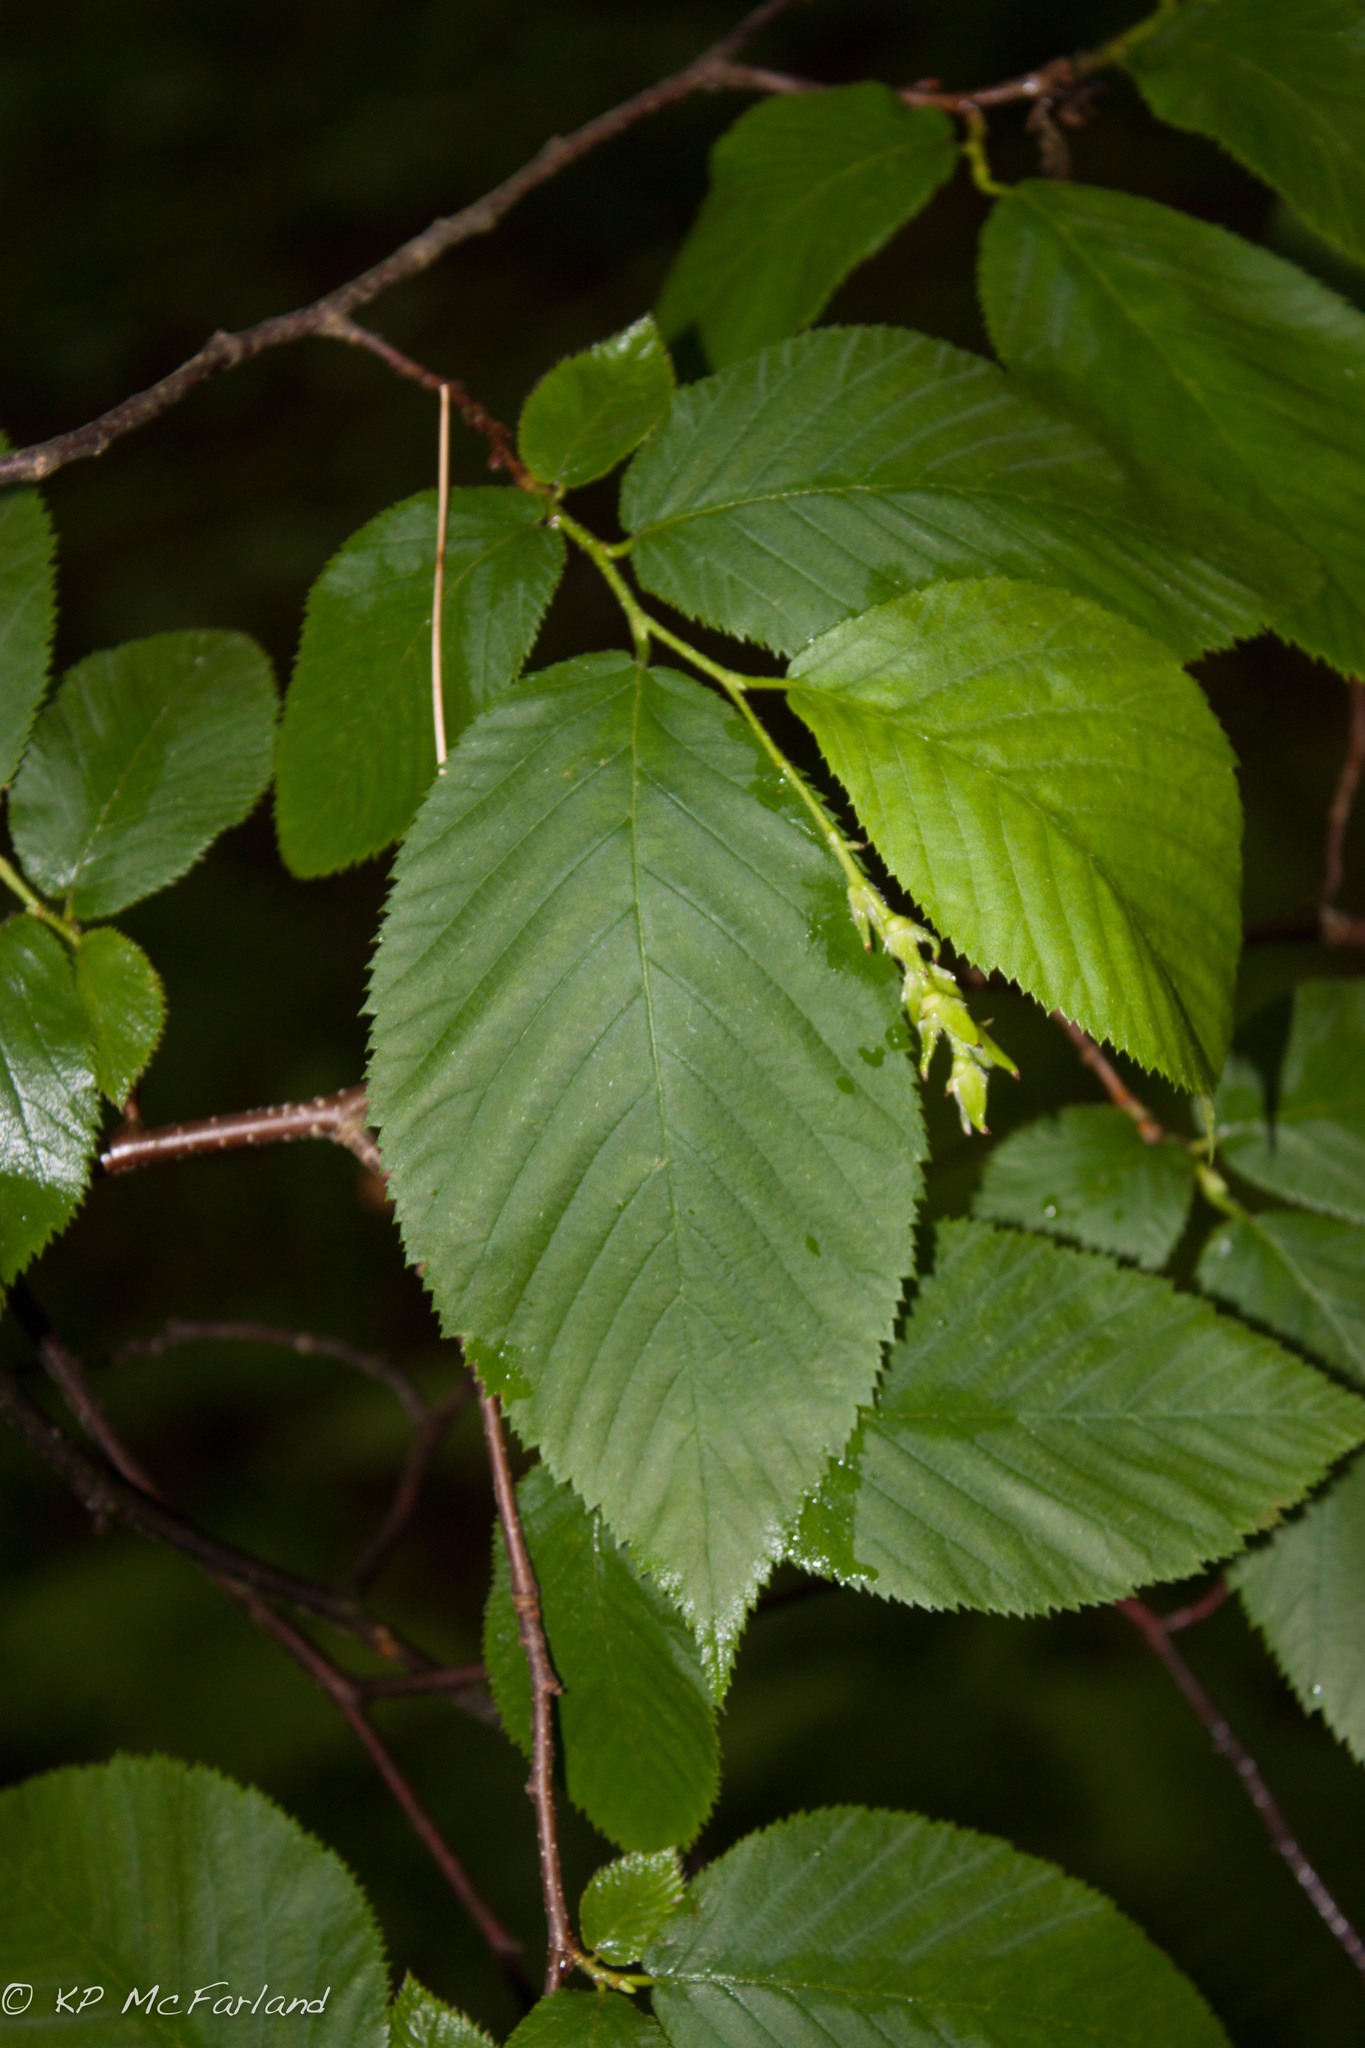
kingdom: Plantae
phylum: Tracheophyta
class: Magnoliopsida
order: Fagales
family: Betulaceae
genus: Ostrya
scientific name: Ostrya virginiana
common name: Ironwood
